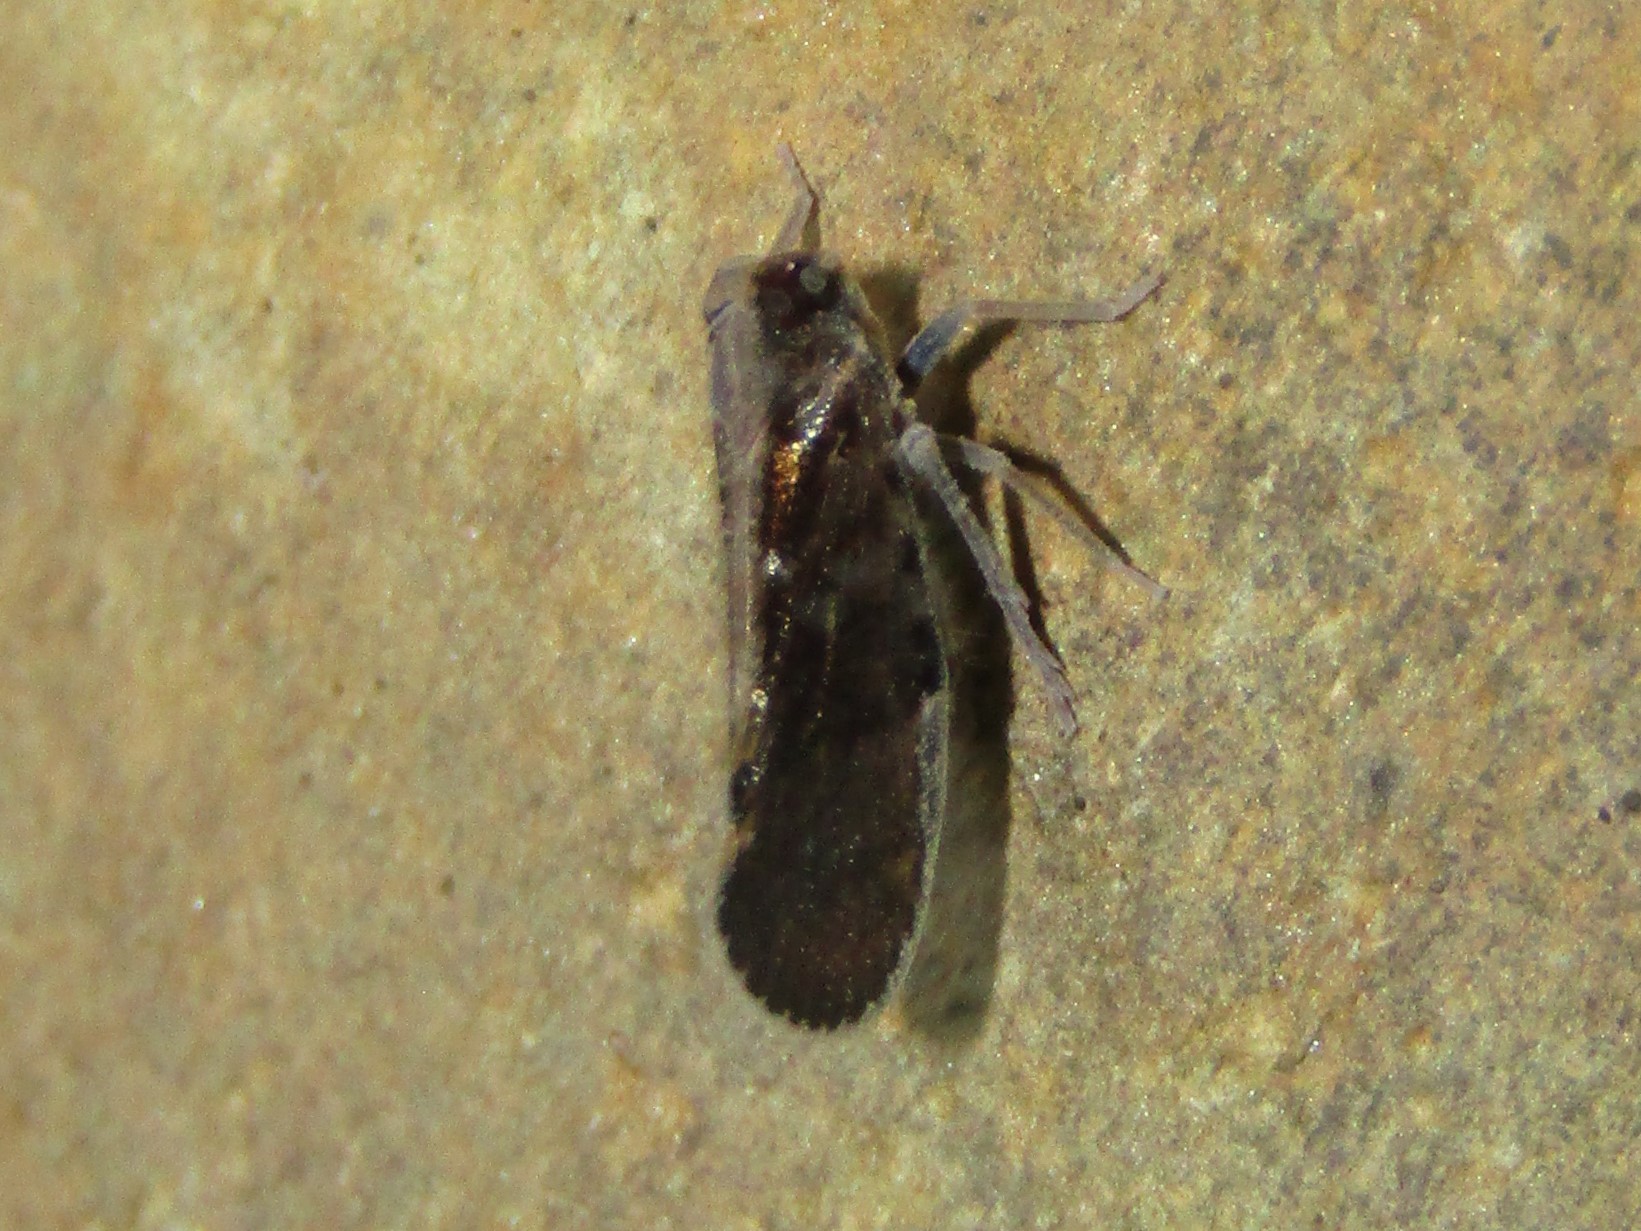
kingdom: Animalia
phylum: Arthropoda
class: Insecta
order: Hemiptera
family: Cixiidae
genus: Pintalia
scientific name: Pintalia vibex
